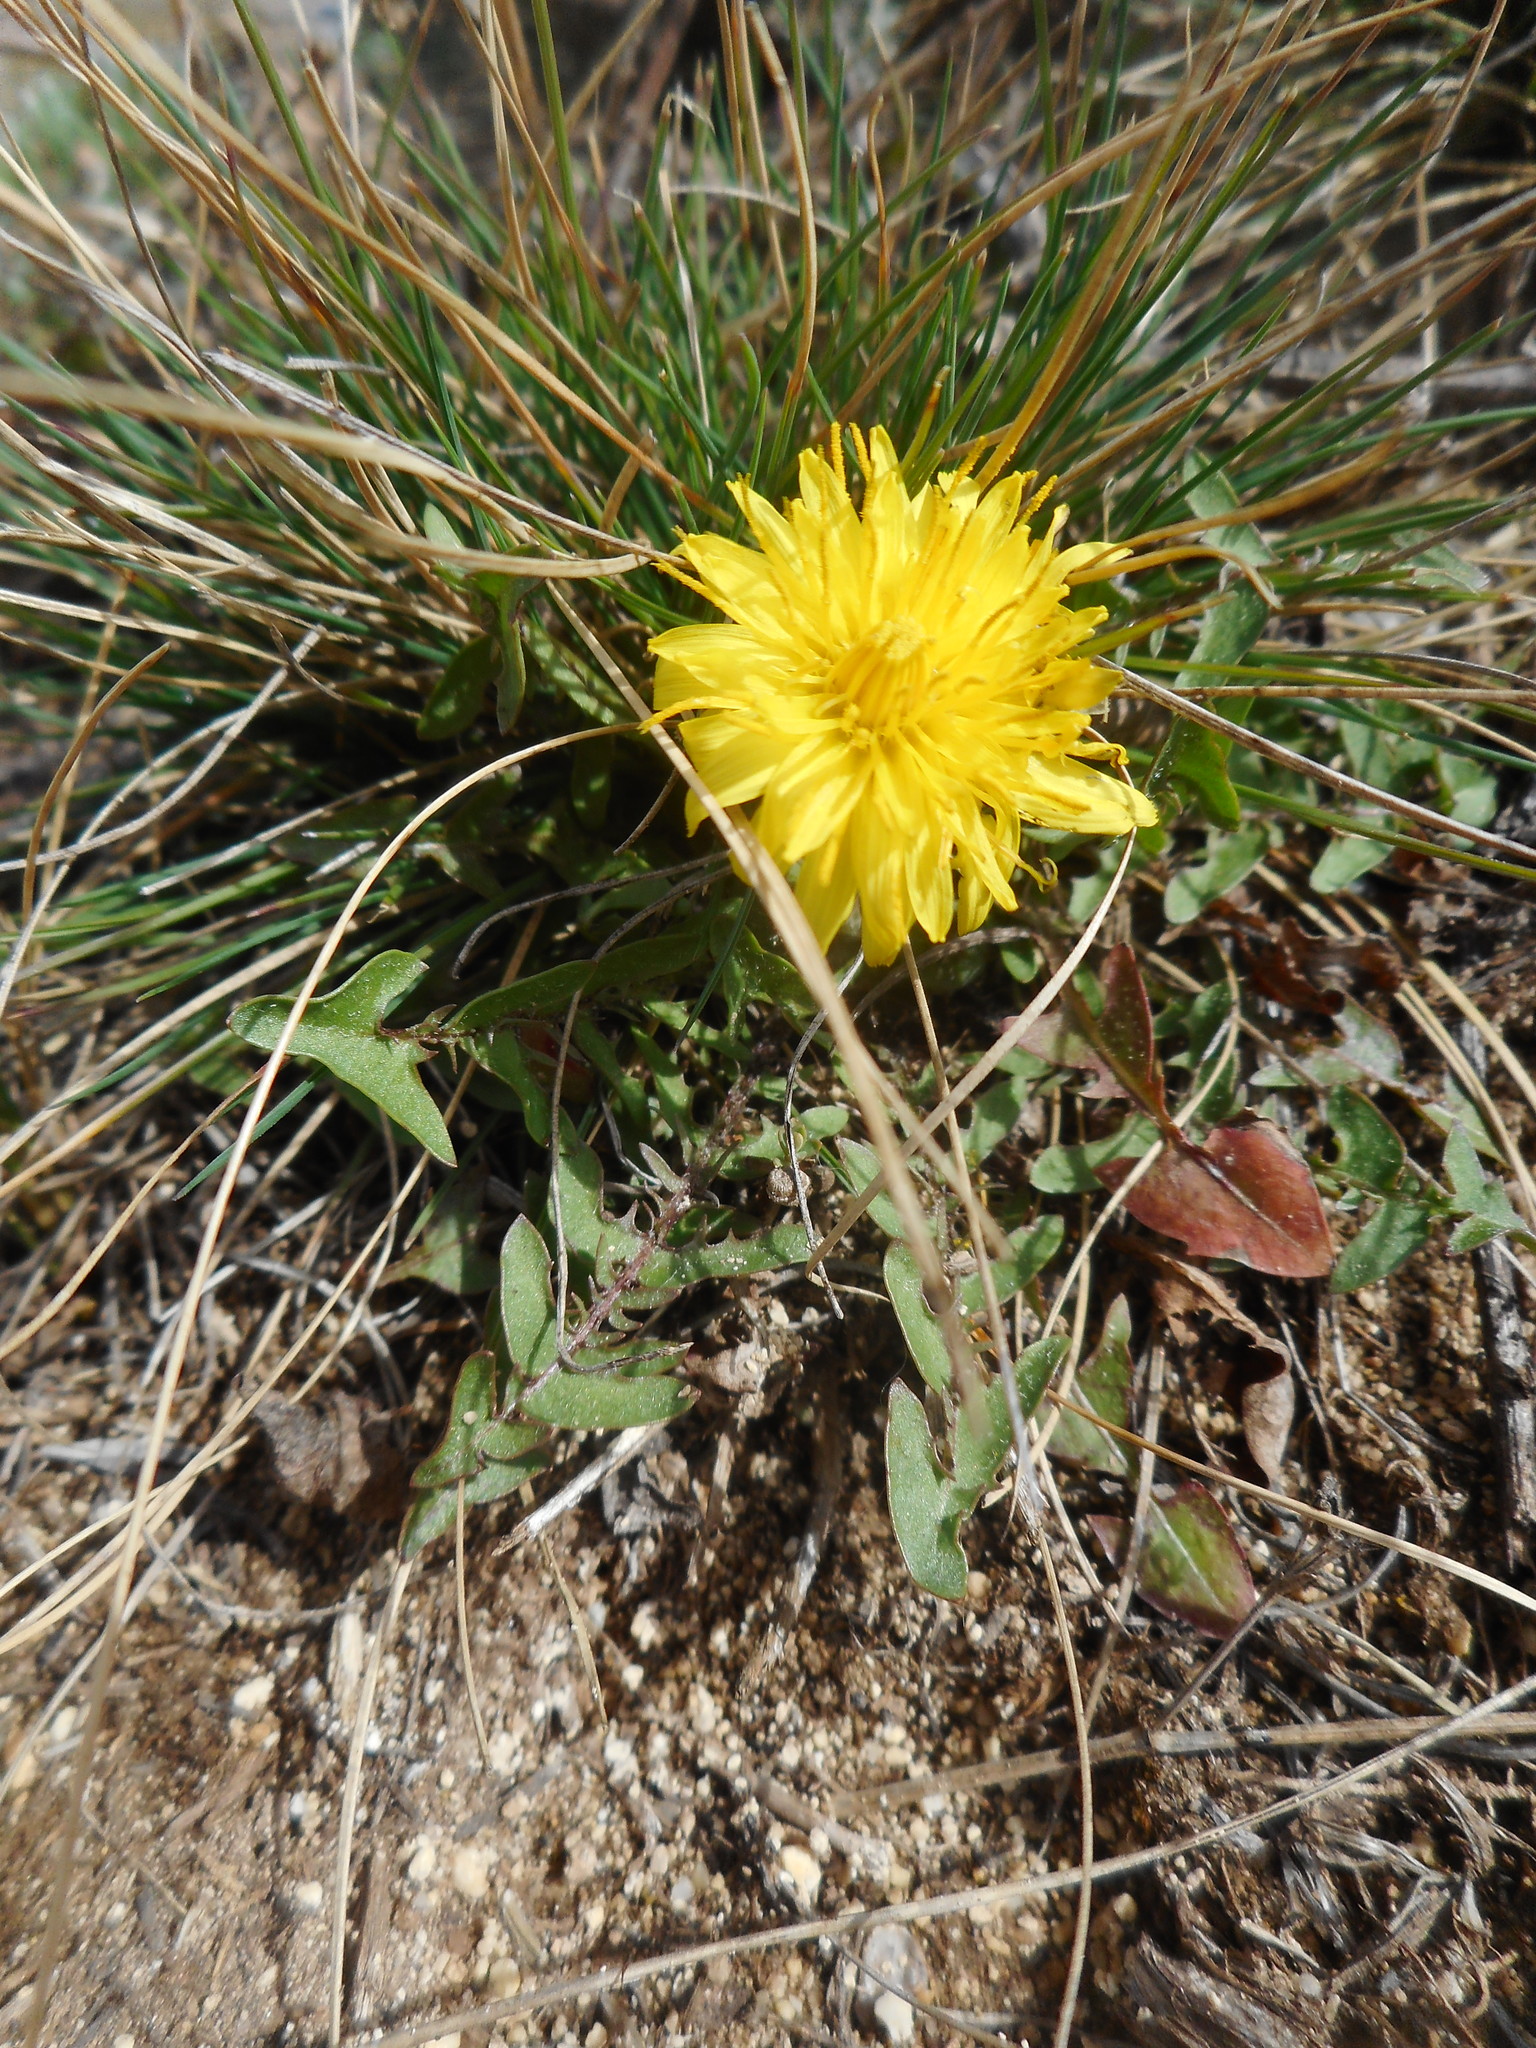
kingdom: Plantae
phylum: Tracheophyta
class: Magnoliopsida
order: Asterales
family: Asteraceae
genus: Taraxacum
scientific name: Taraxacum
